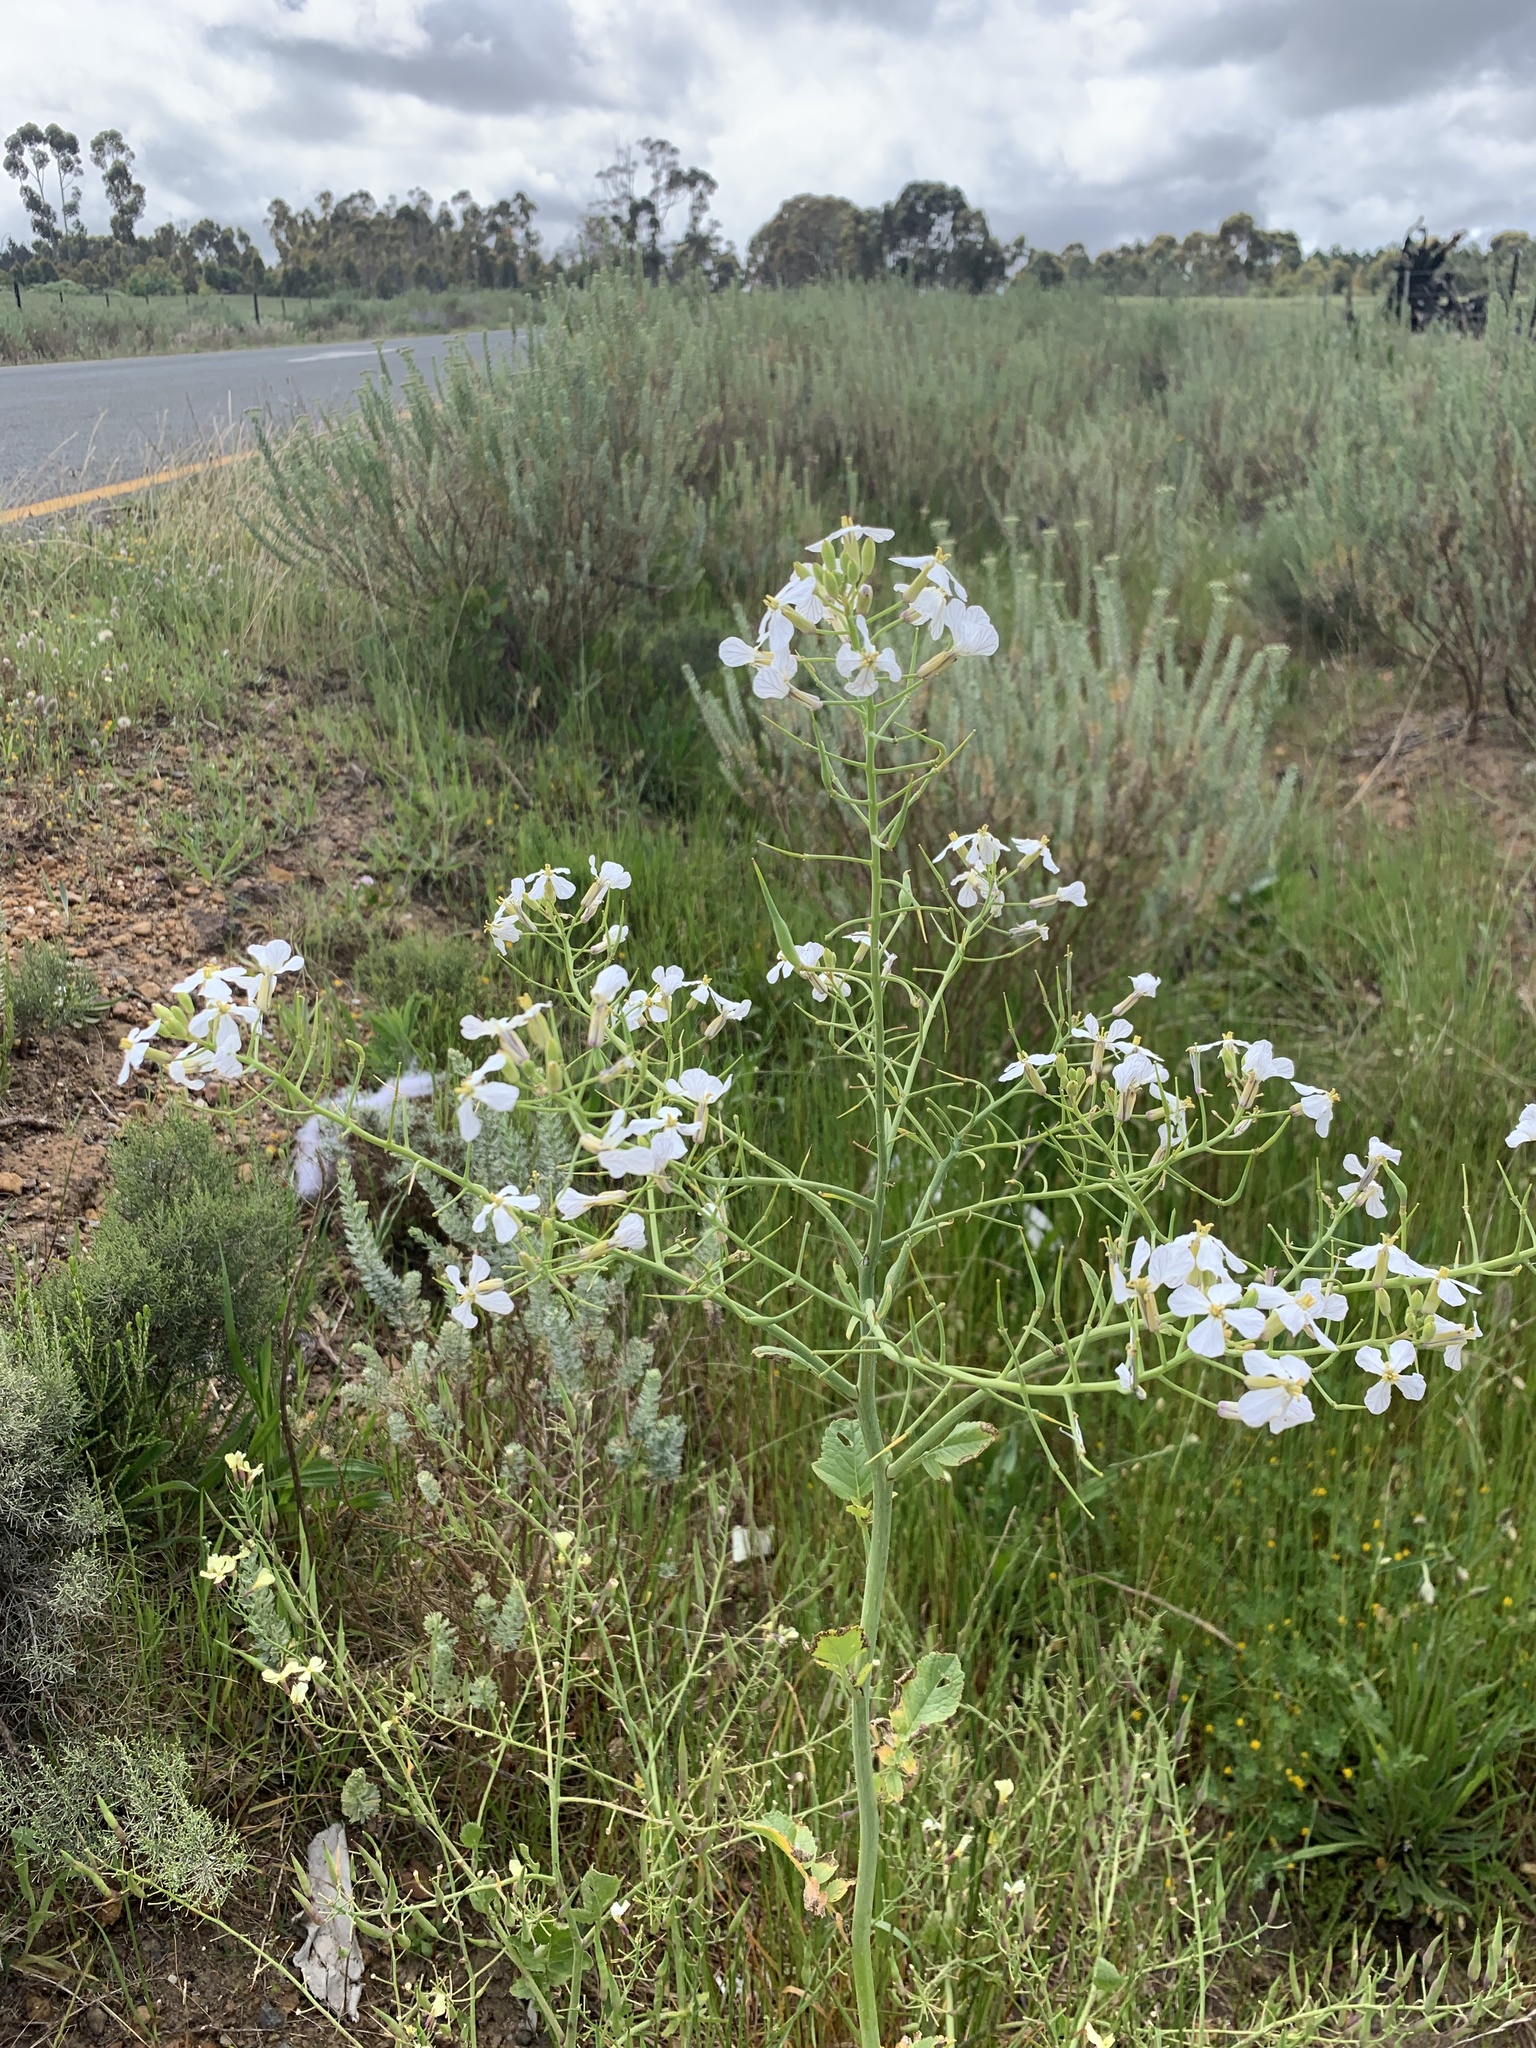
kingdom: Plantae
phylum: Tracheophyta
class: Magnoliopsida
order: Brassicales
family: Brassicaceae
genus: Raphanus
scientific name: Raphanus sativus
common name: Cultivated radish
